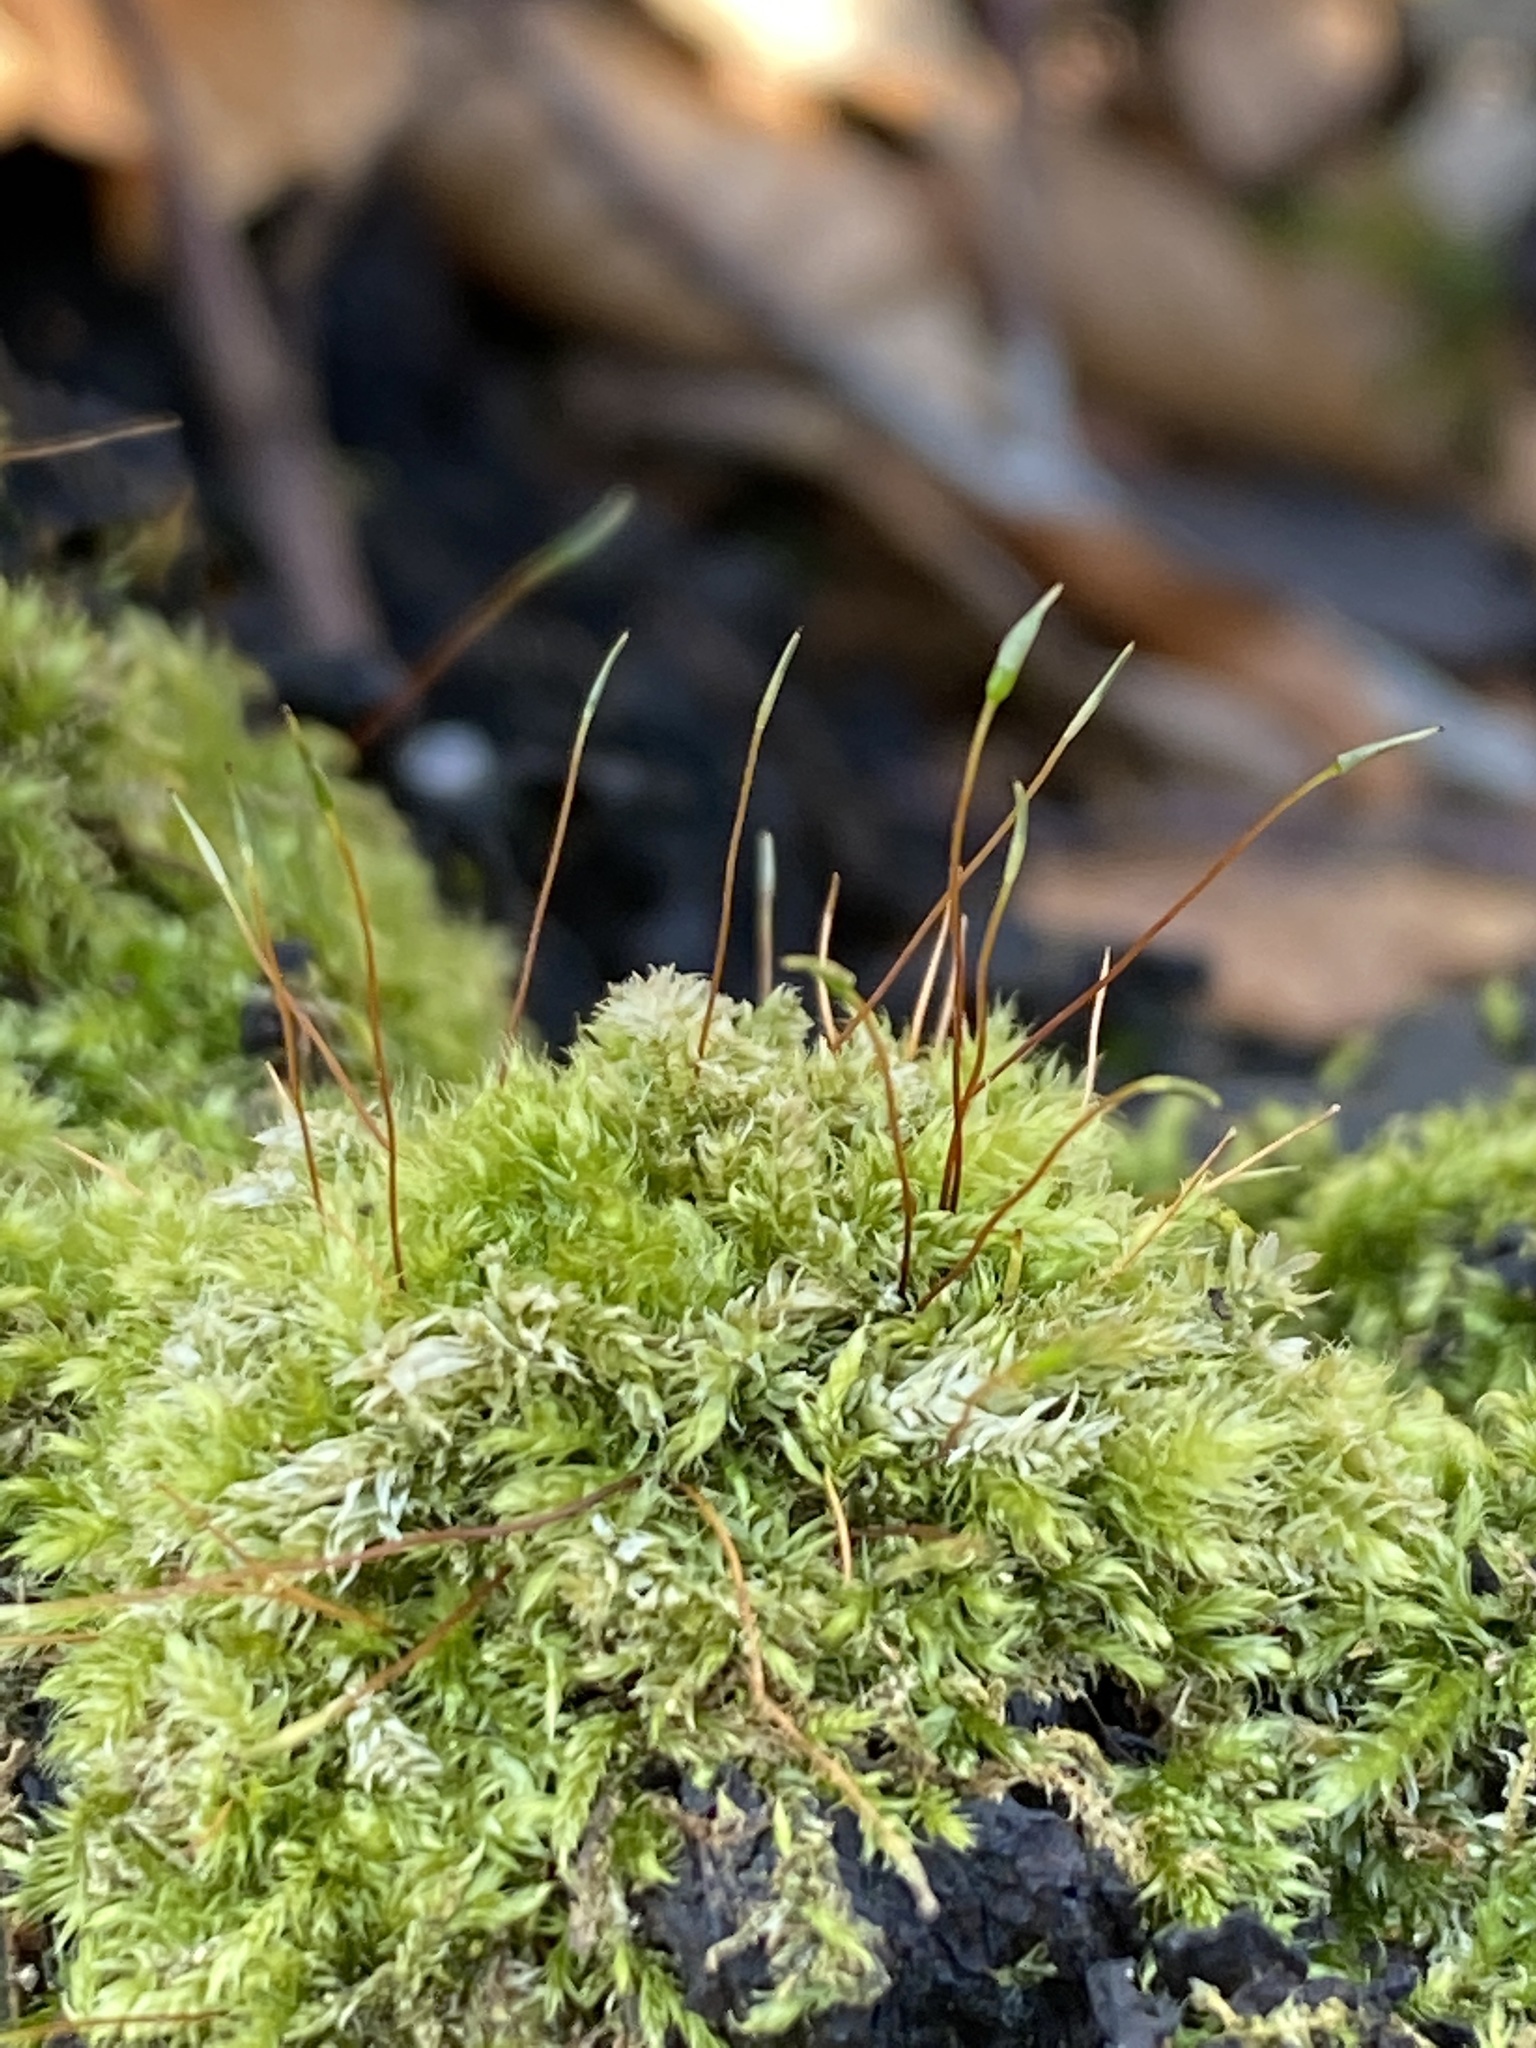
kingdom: Plantae
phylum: Bryophyta
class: Bryopsida
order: Hypnales
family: Plagiotheciaceae
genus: Herzogiella
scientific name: Herzogiella seligeri
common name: Silesian feather-moss
